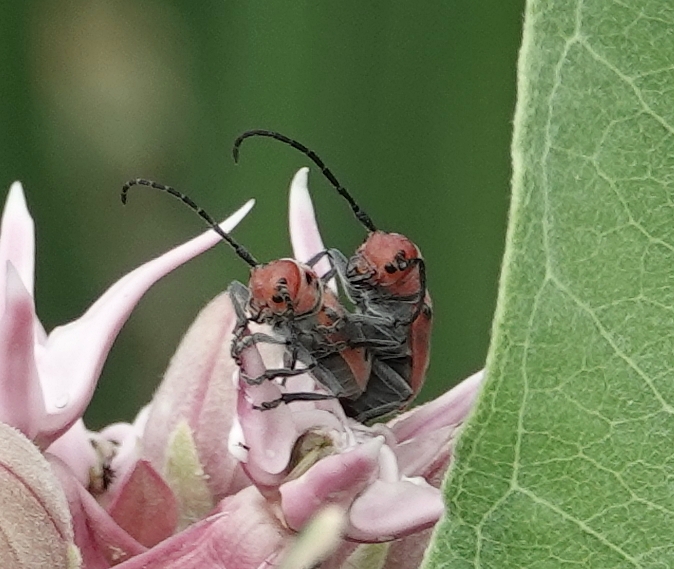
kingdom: Animalia
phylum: Arthropoda
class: Insecta
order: Coleoptera
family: Cerambycidae
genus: Tetraopes
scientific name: Tetraopes tetrophthalmus
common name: Red milkweed beetle
